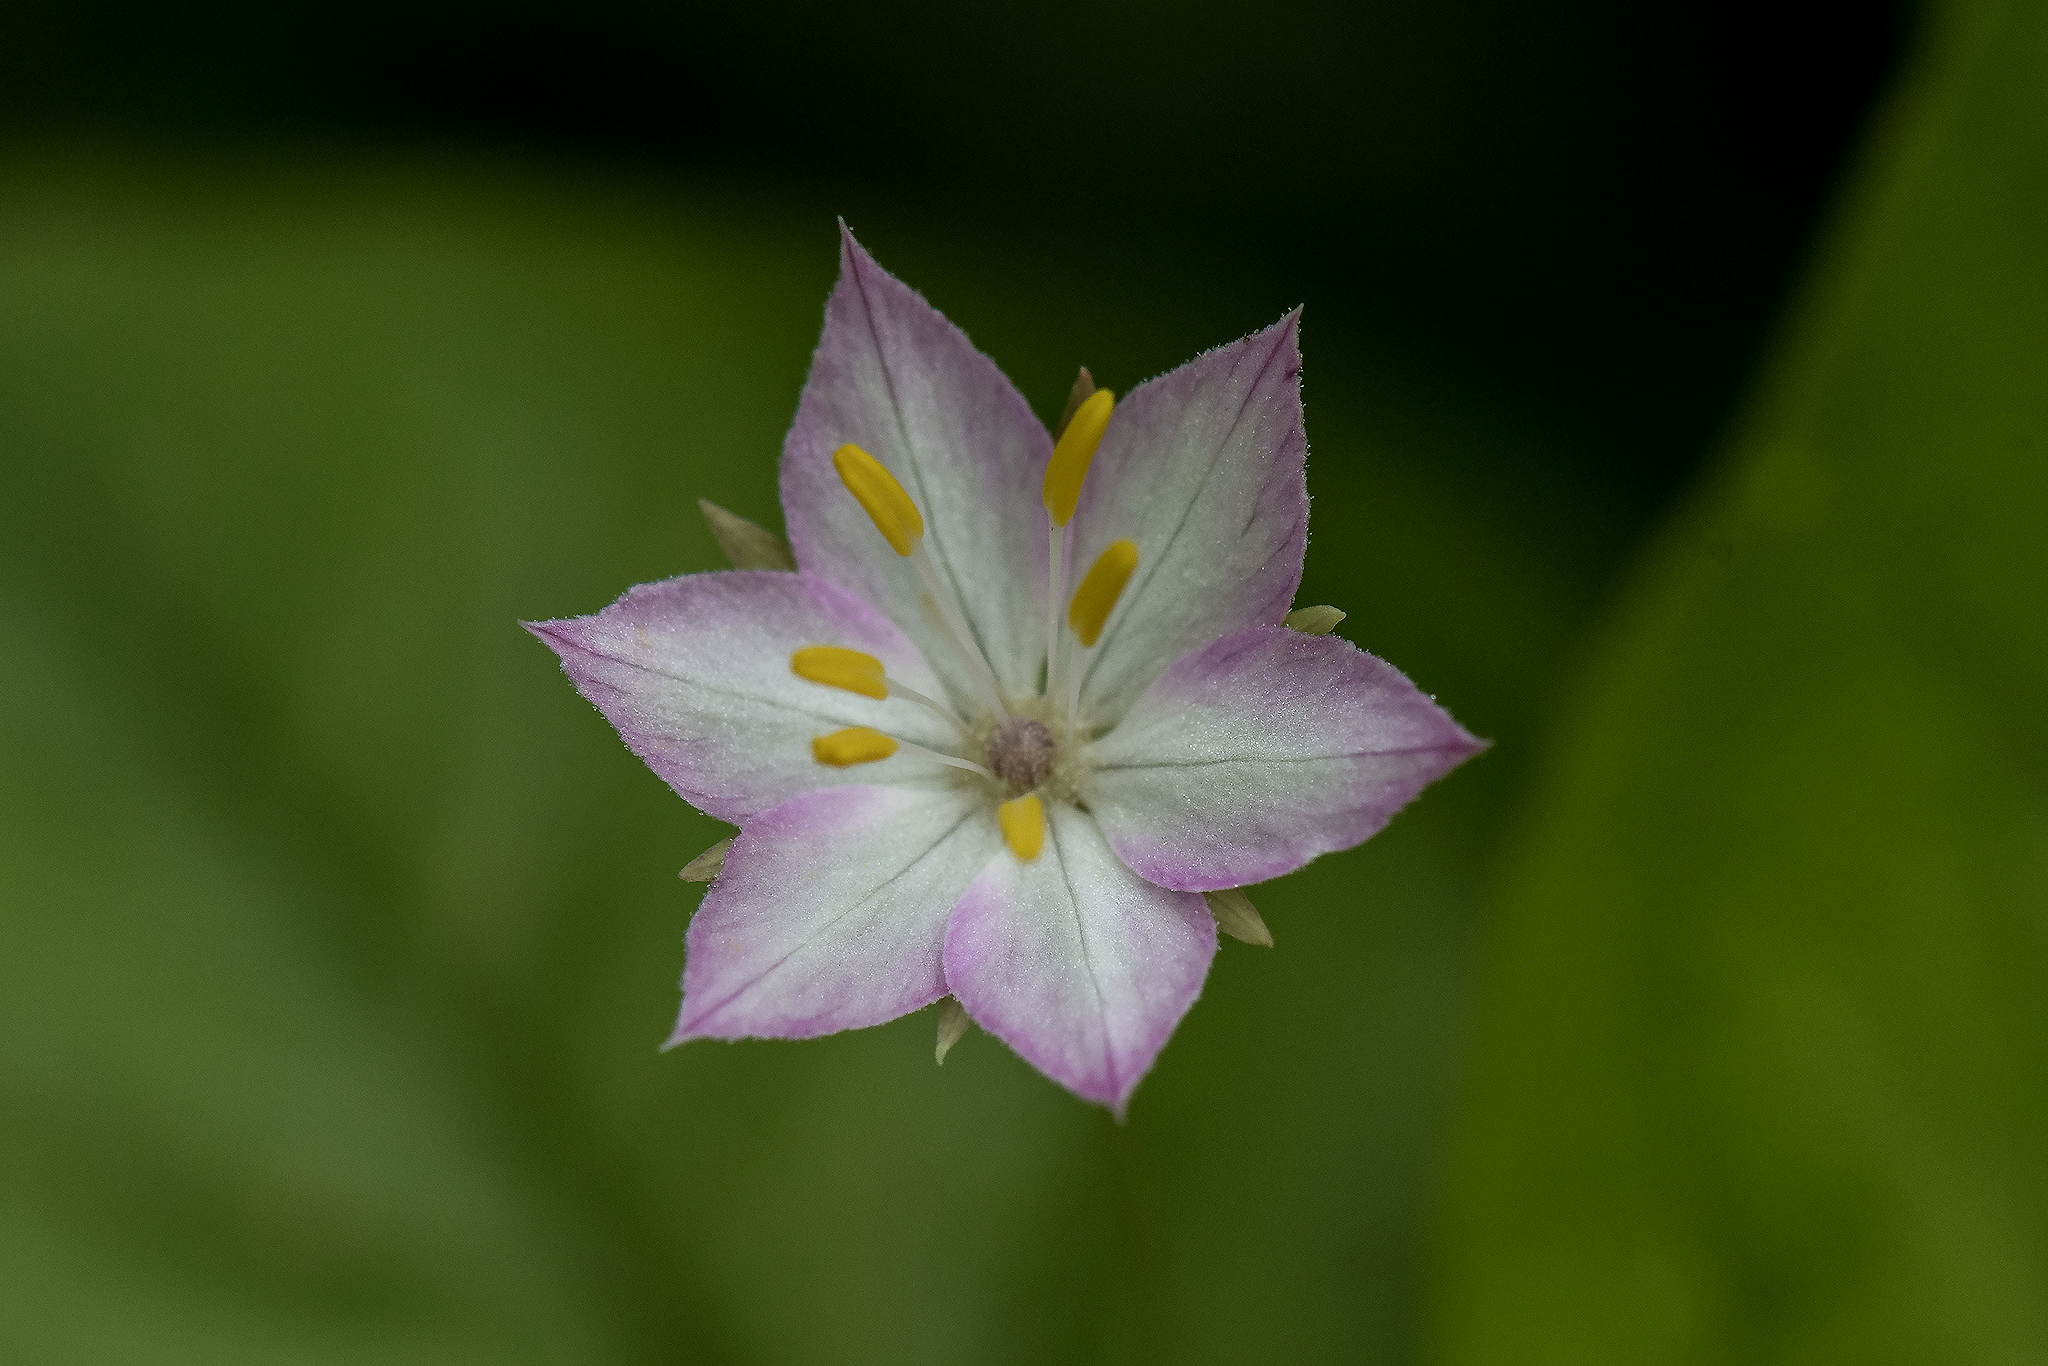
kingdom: Plantae
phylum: Tracheophyta
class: Magnoliopsida
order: Ericales
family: Primulaceae
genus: Lysimachia
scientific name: Lysimachia latifolia
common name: Pacific starflower
